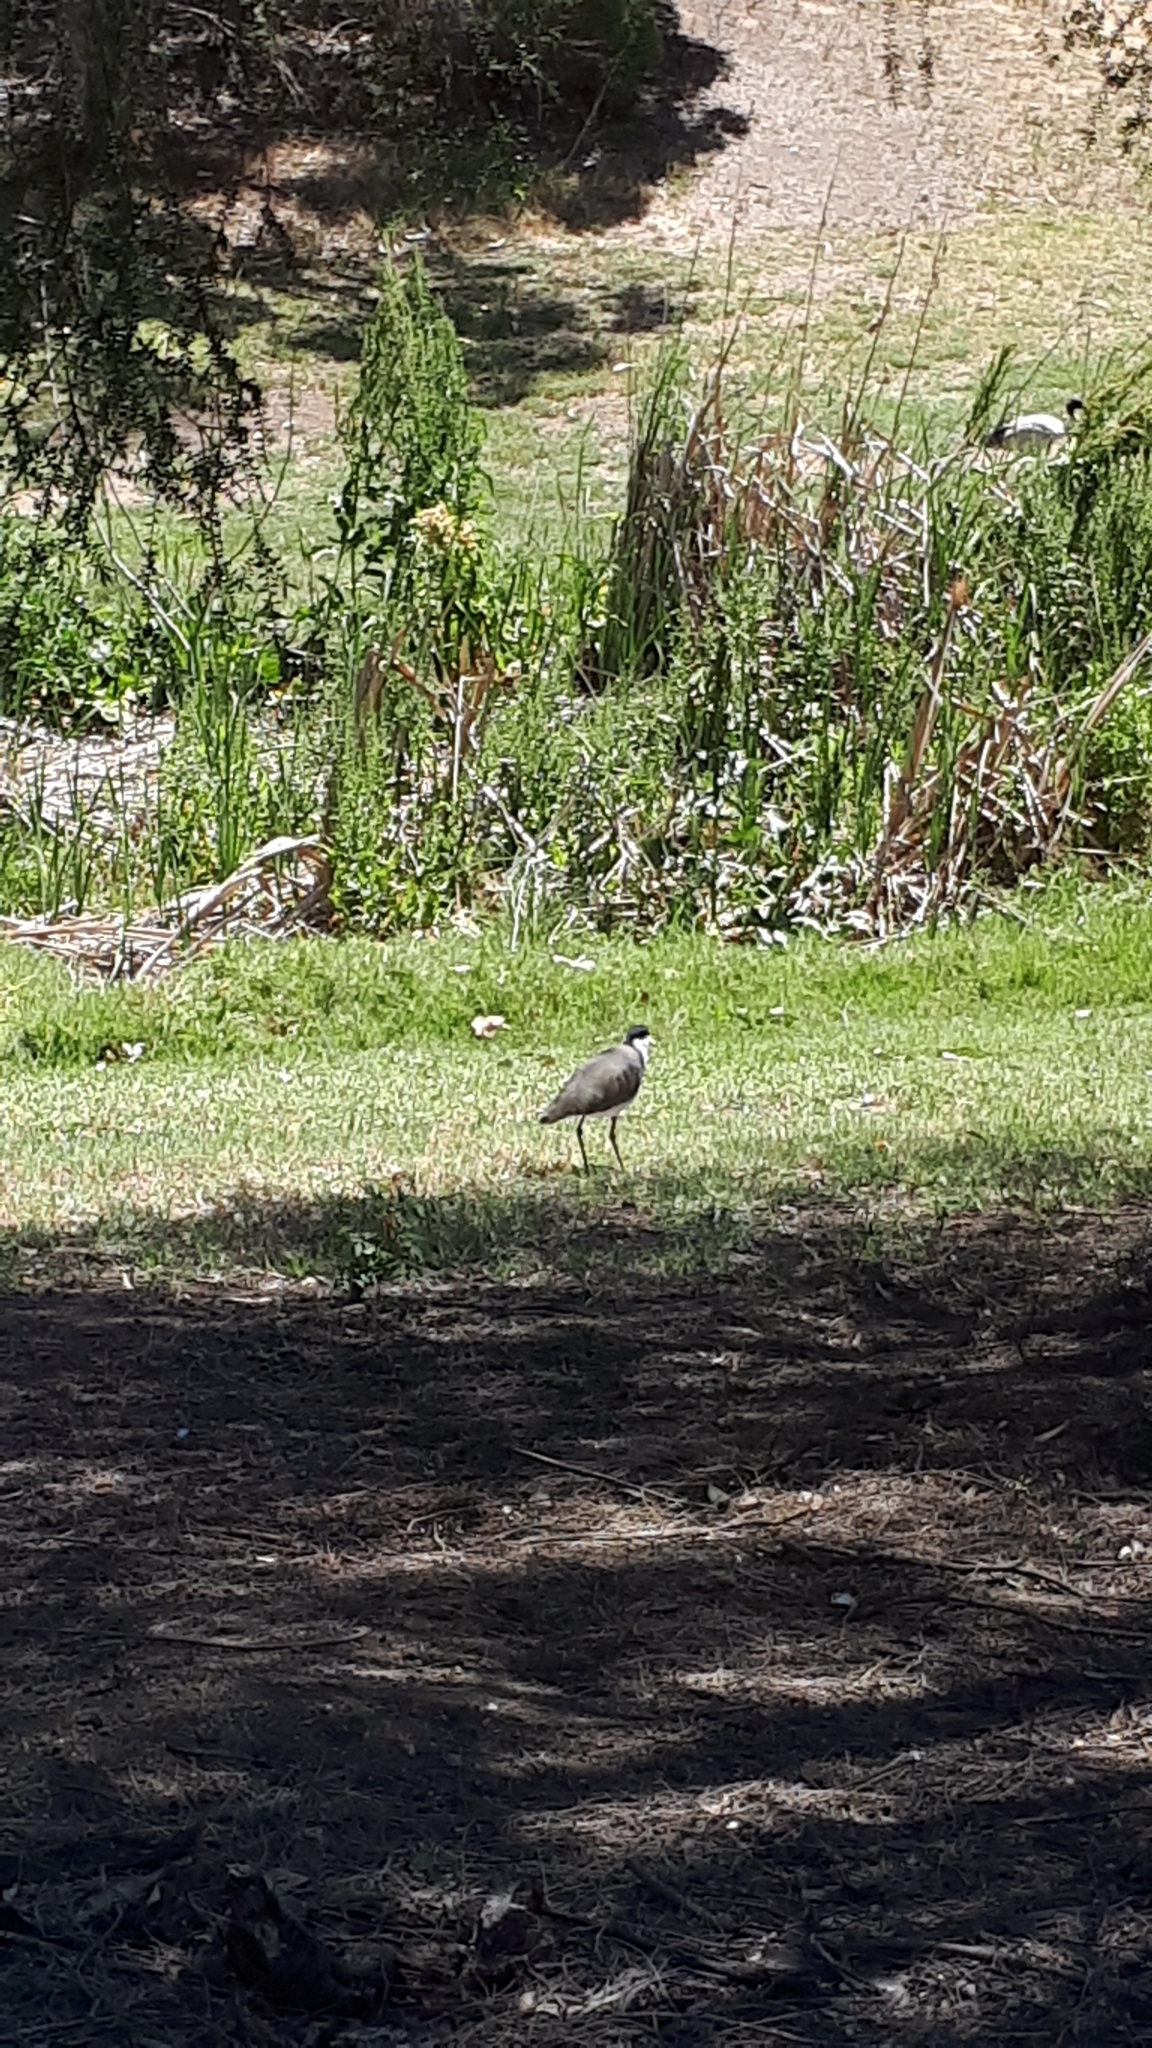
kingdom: Animalia
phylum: Chordata
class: Aves
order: Charadriiformes
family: Charadriidae
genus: Vanellus
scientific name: Vanellus miles
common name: Masked lapwing
